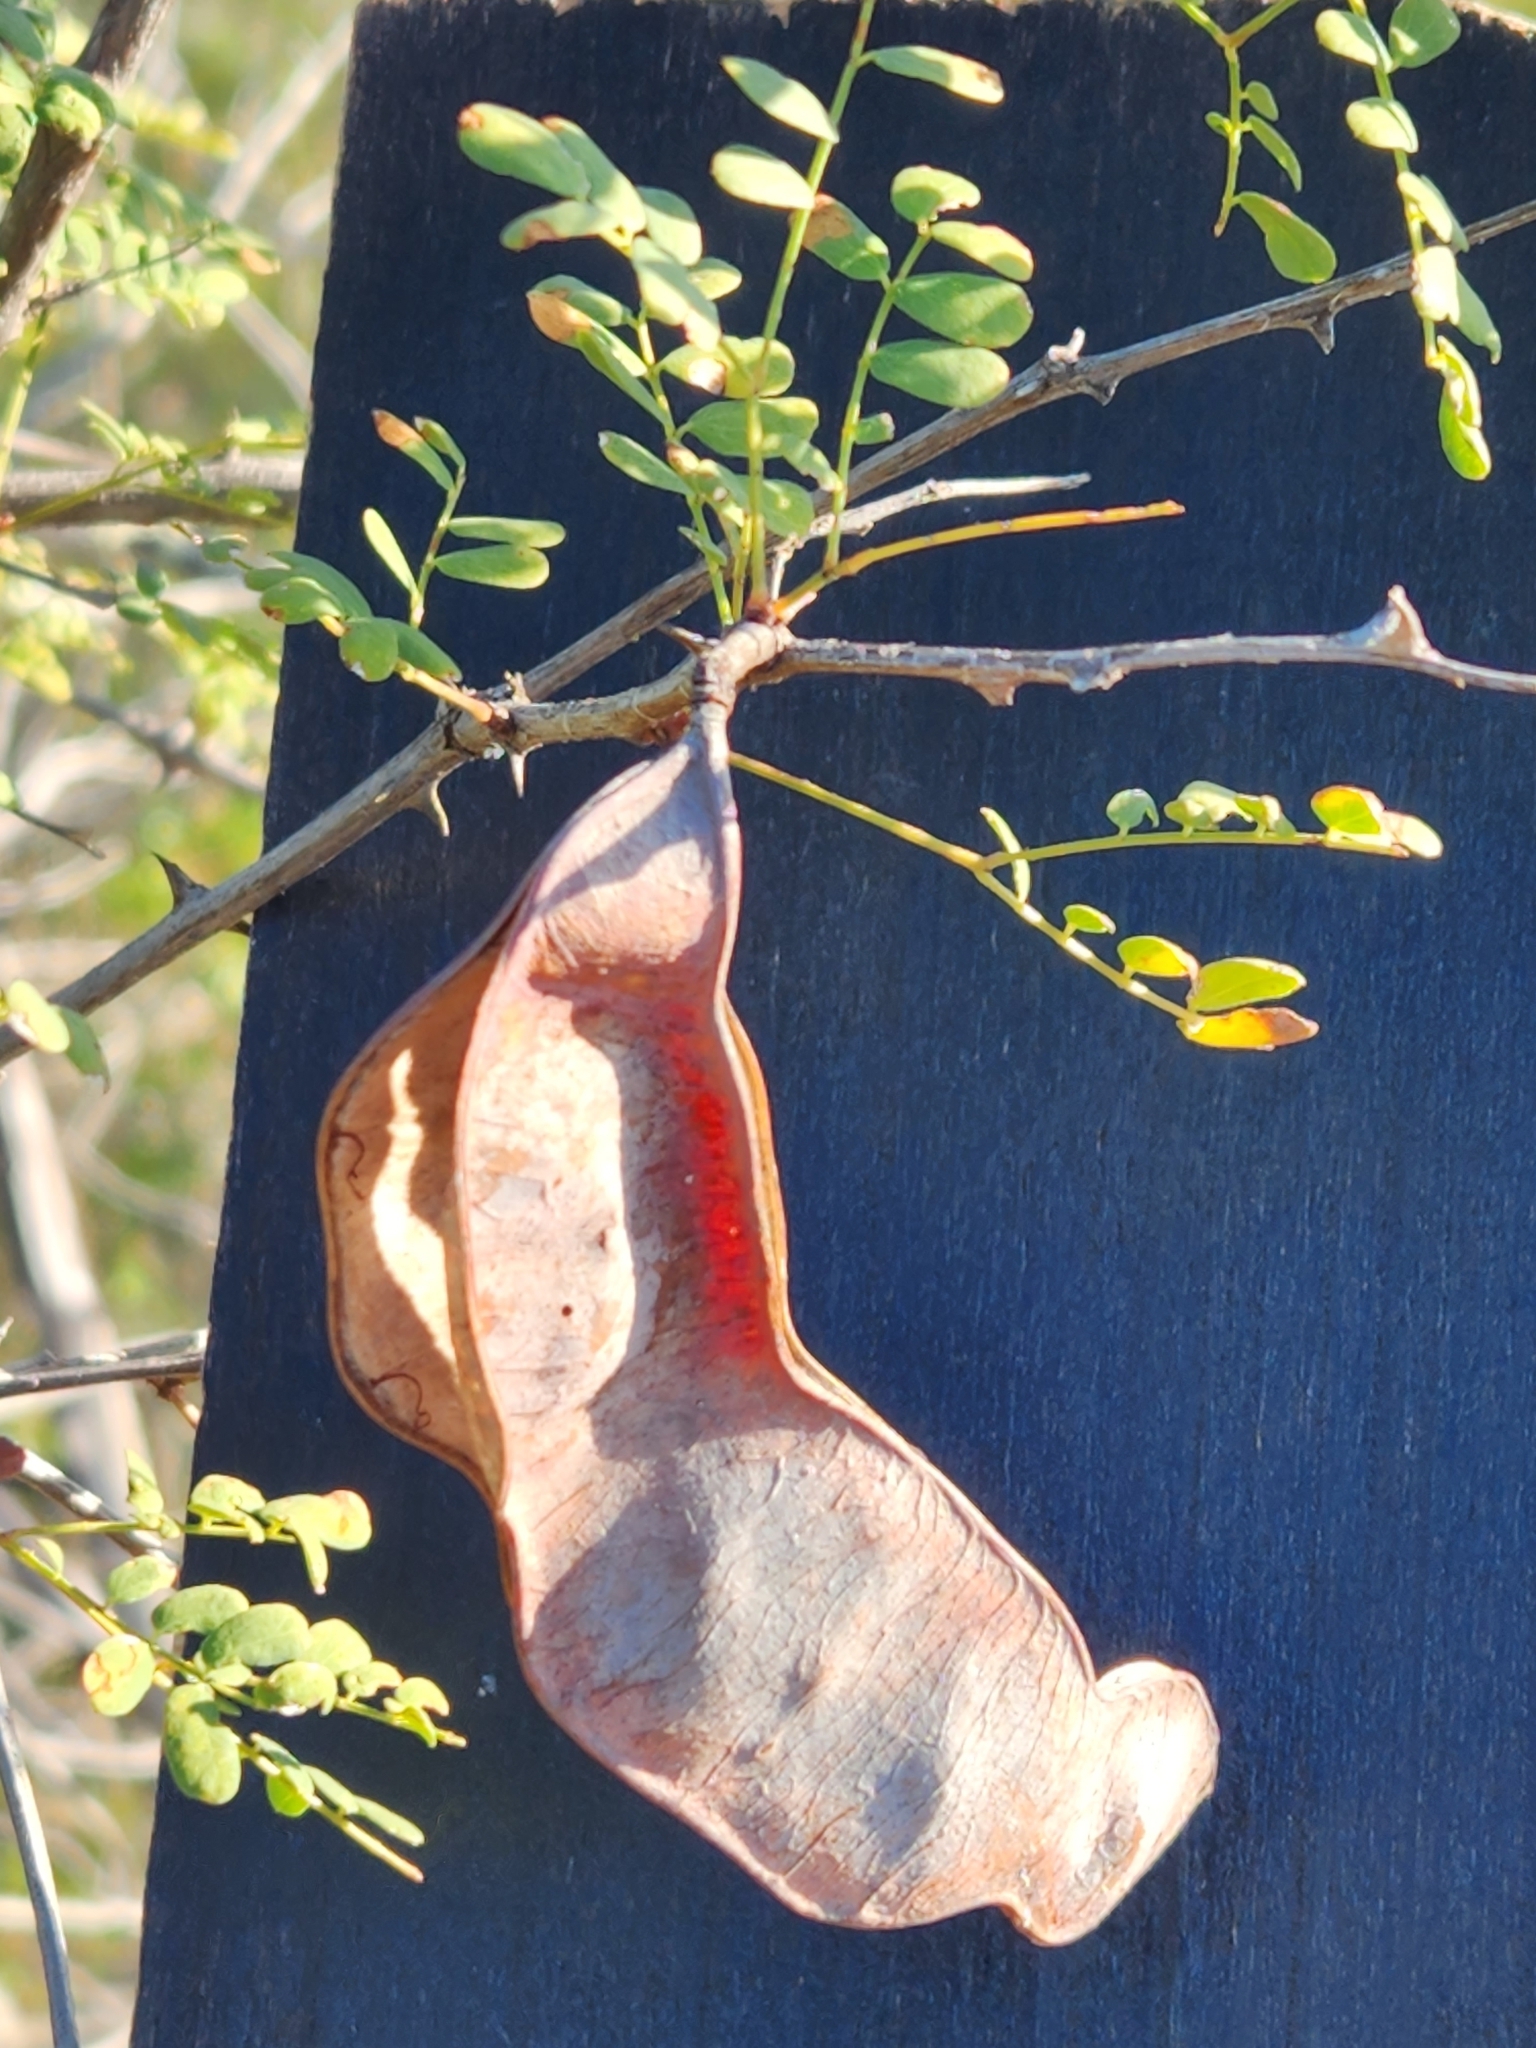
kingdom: Plantae
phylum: Tracheophyta
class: Magnoliopsida
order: Fabales
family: Fabaceae
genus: Senegalia
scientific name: Senegalia roemeriana
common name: Roemer's acacia
